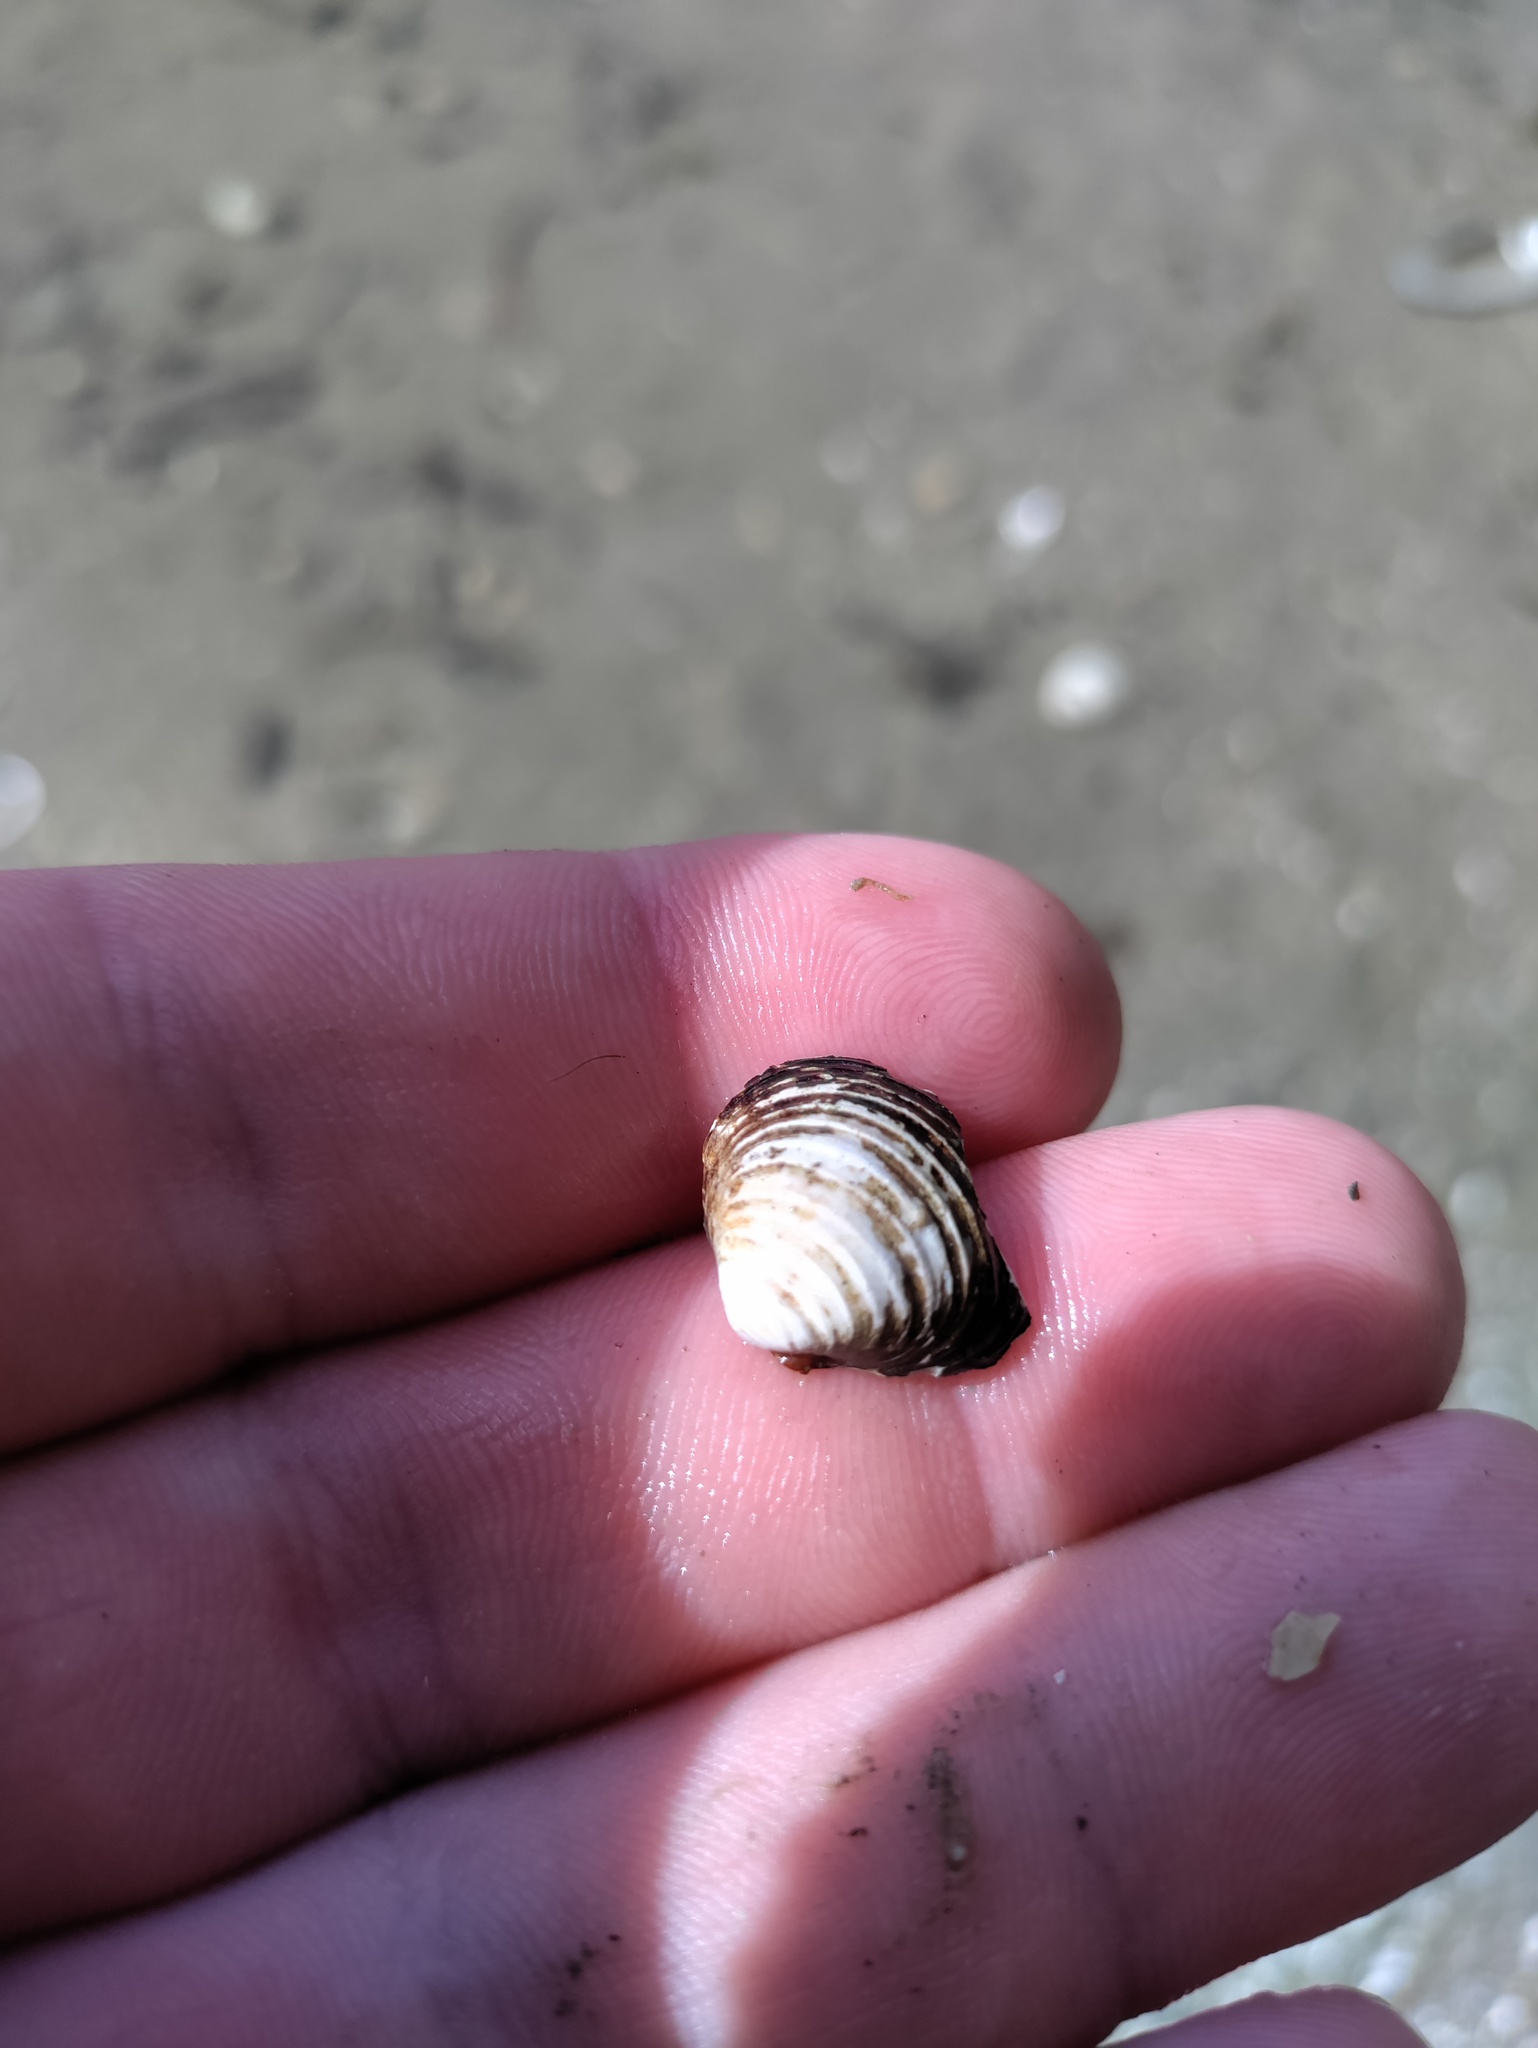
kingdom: Animalia
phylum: Mollusca
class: Bivalvia
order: Venerida
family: Cyrenidae
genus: Corbicula
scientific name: Corbicula fluminea
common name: Asian clam
